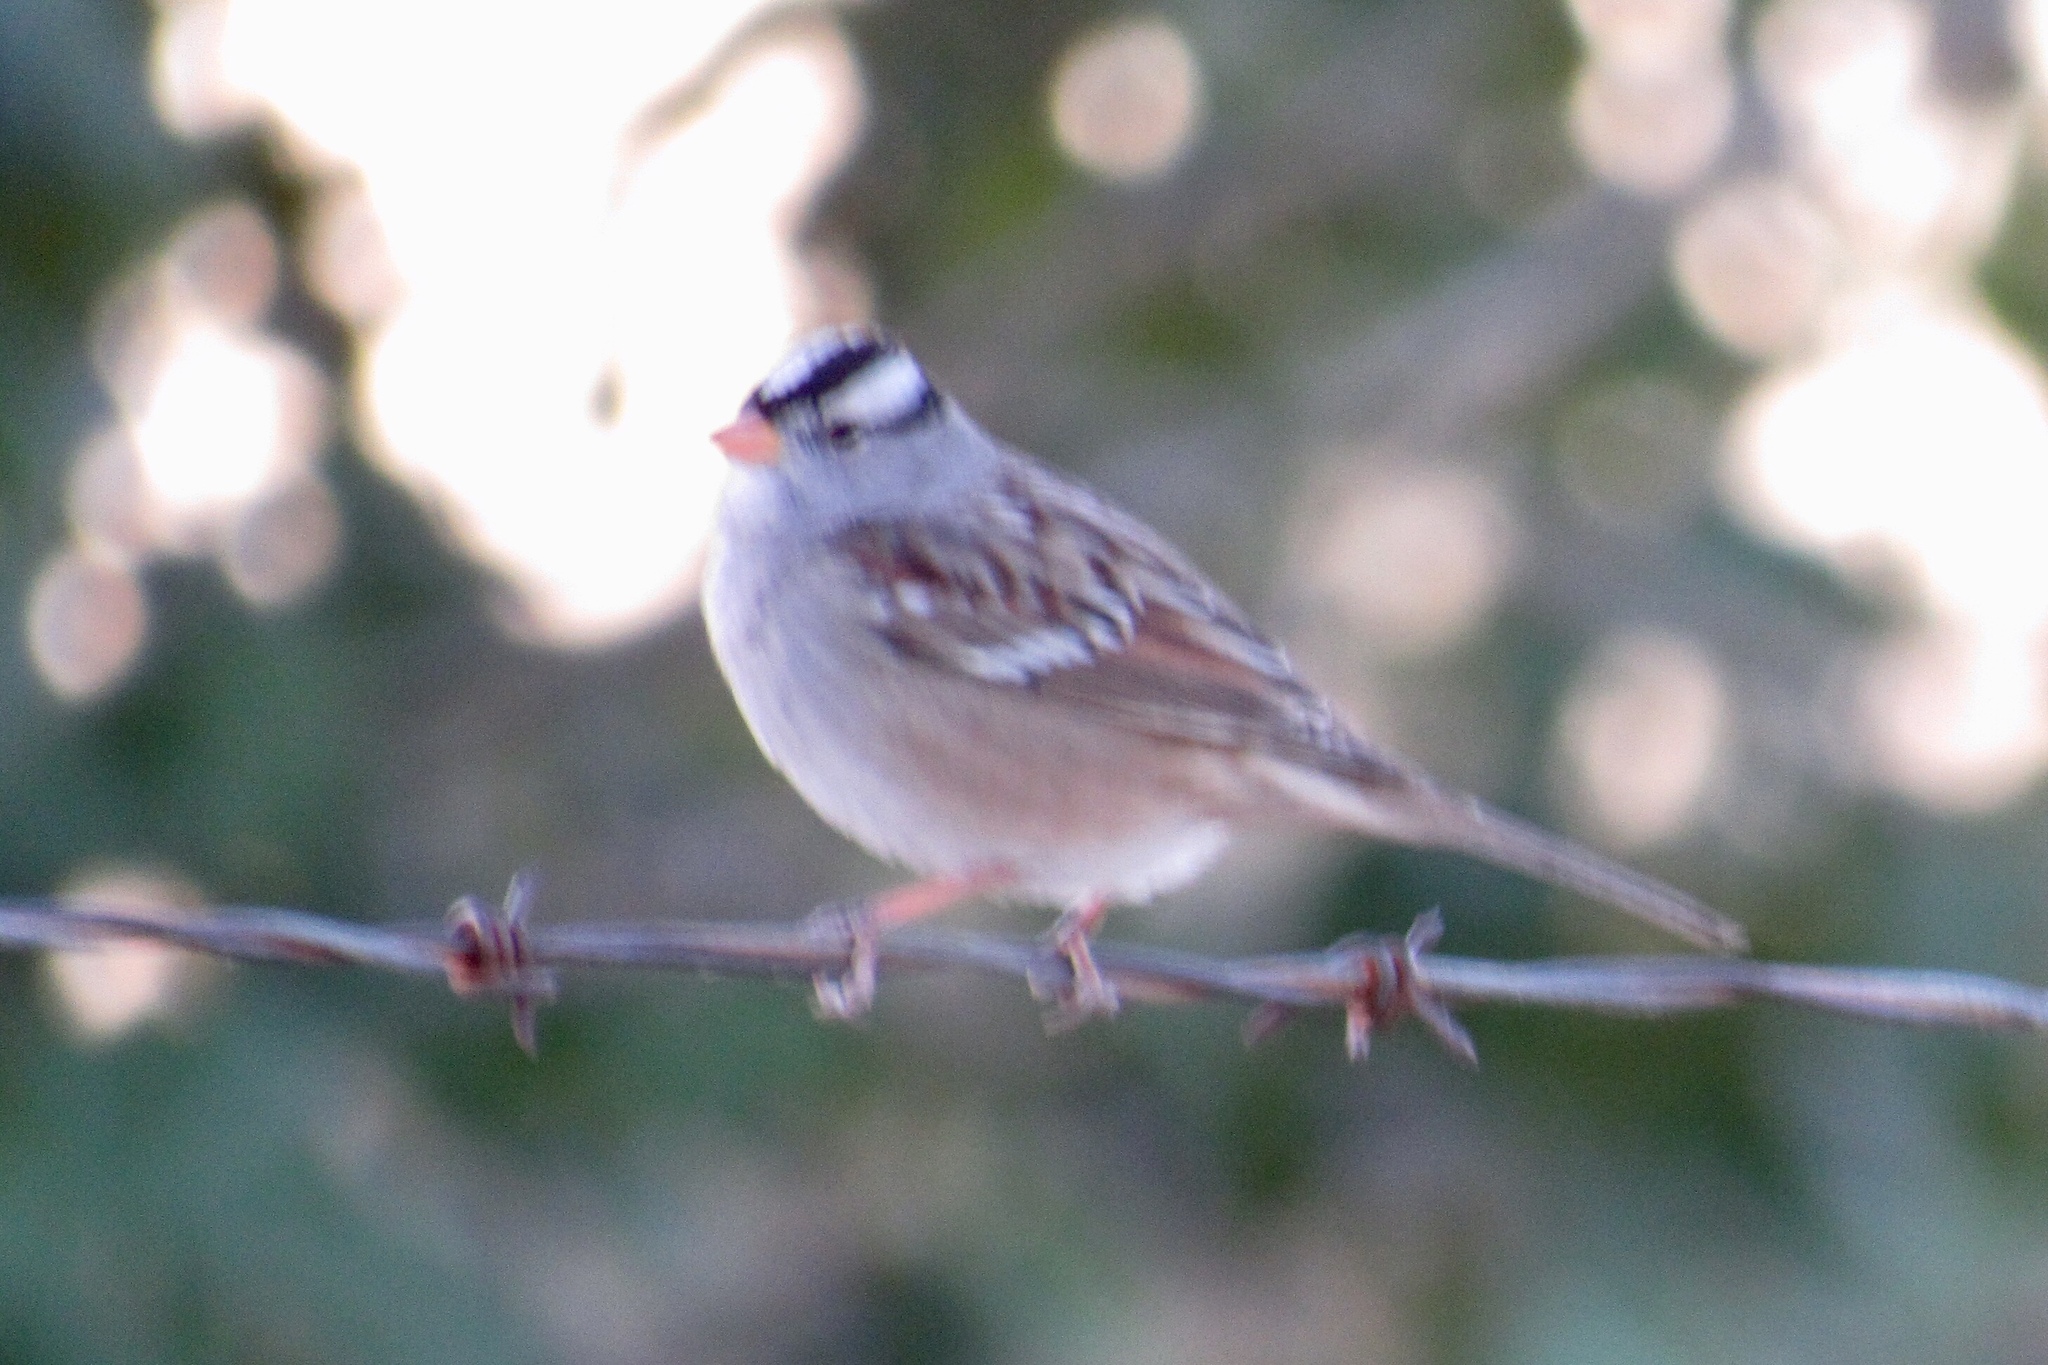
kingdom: Animalia
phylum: Chordata
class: Aves
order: Passeriformes
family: Passerellidae
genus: Zonotrichia
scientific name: Zonotrichia leucophrys
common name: White-crowned sparrow
